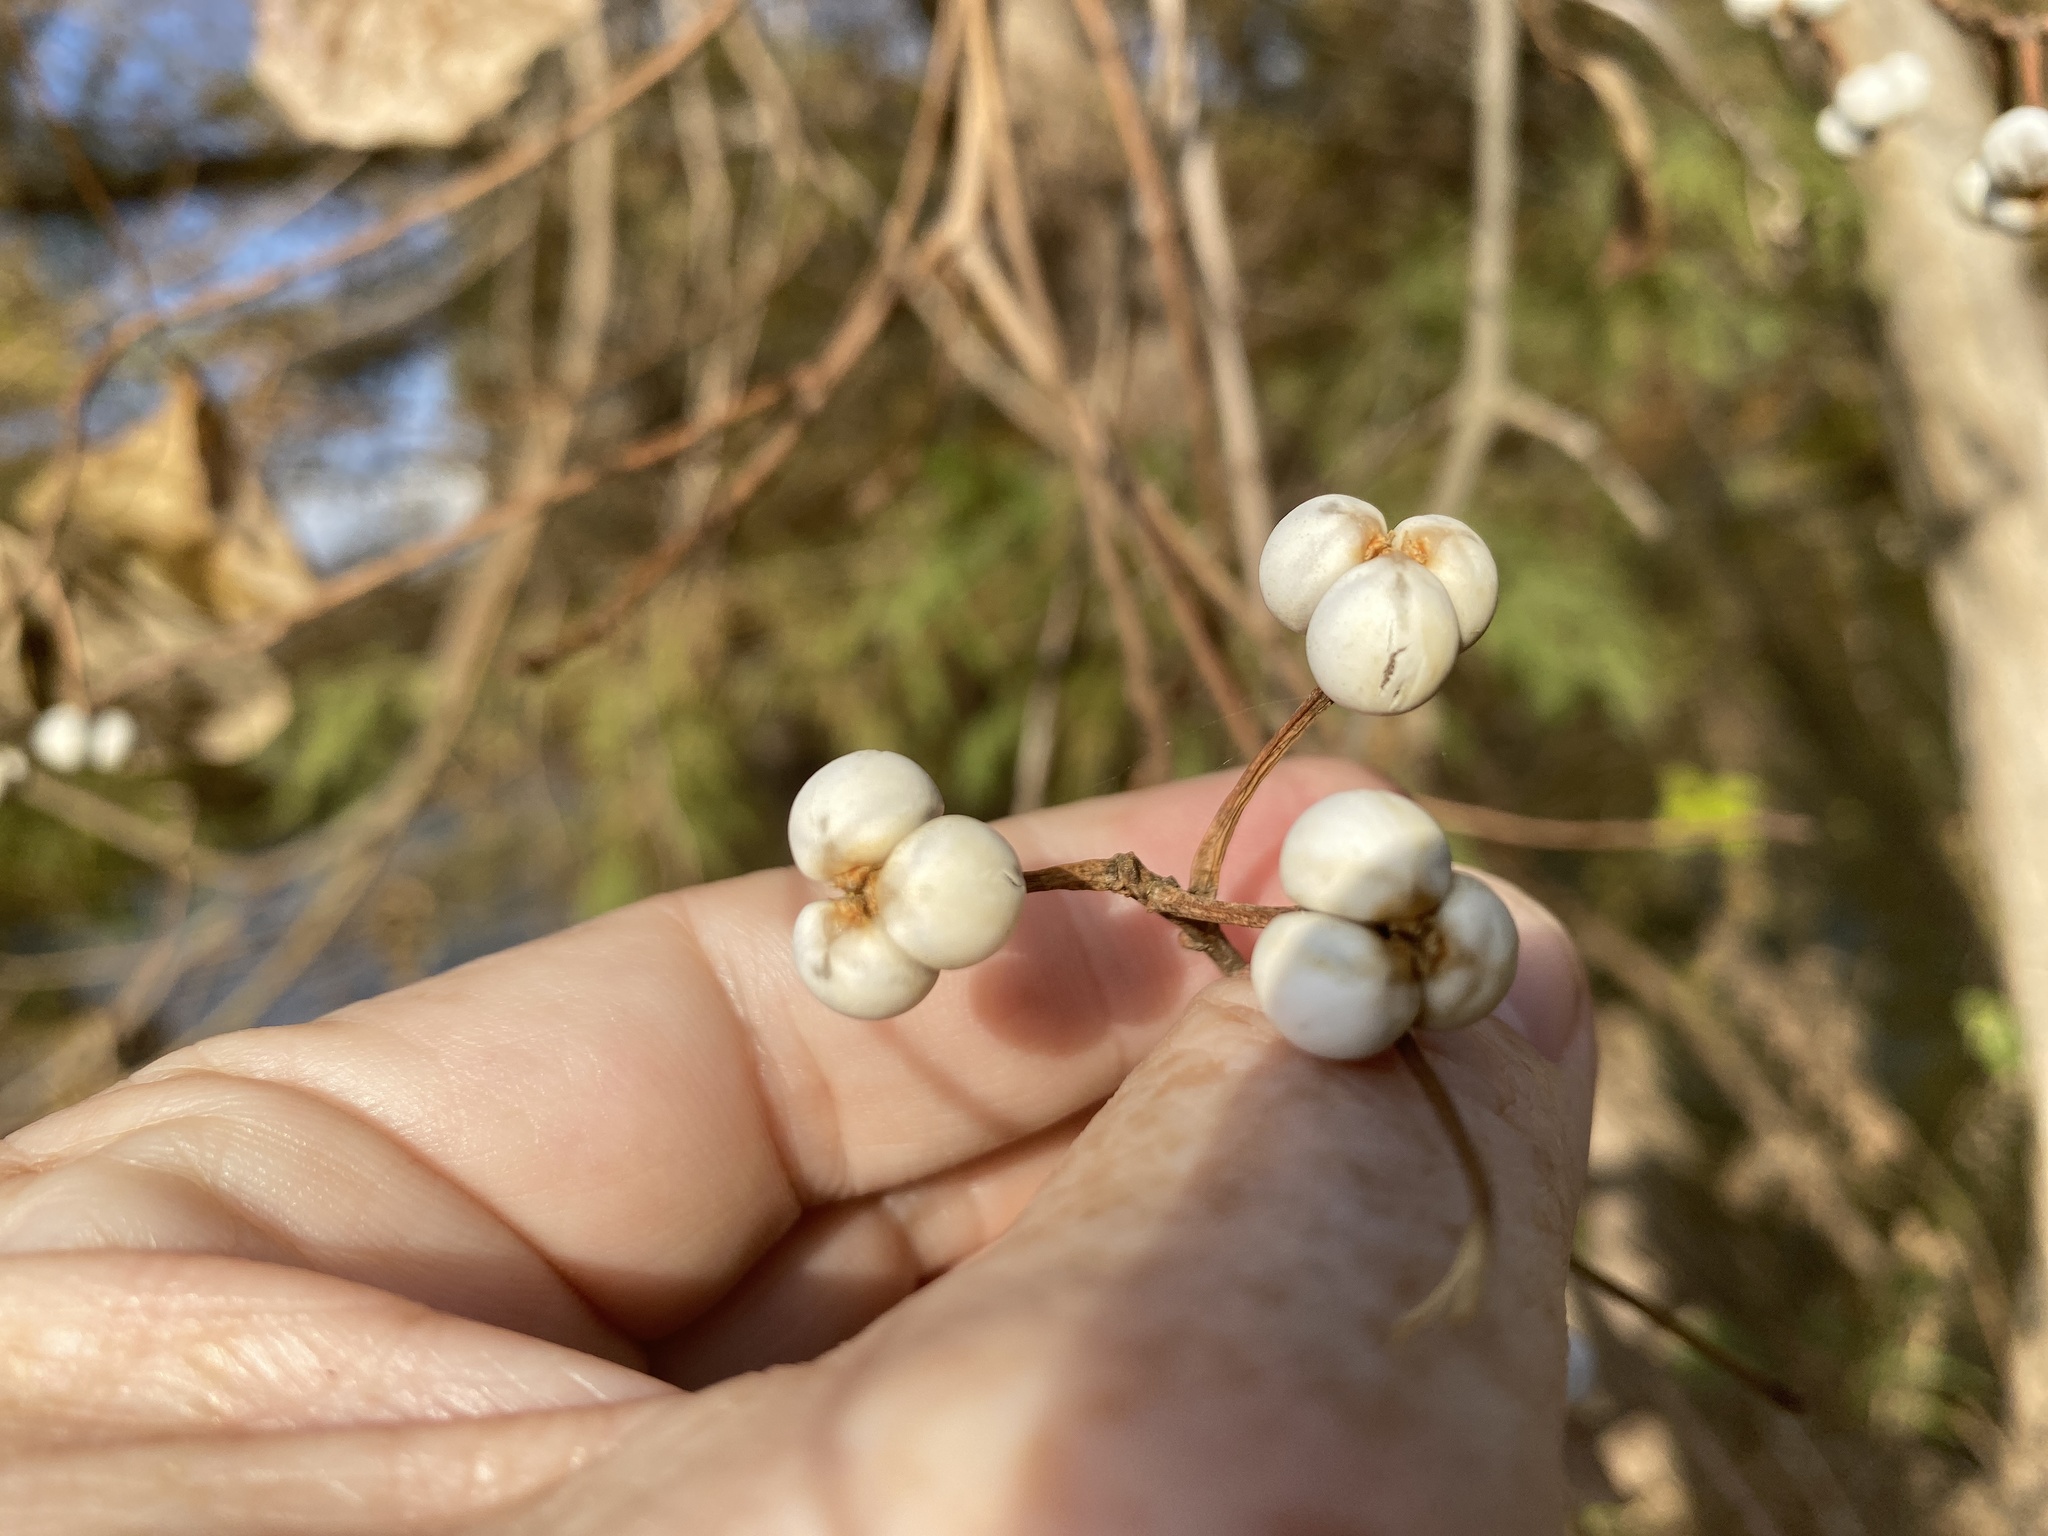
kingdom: Plantae
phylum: Tracheophyta
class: Magnoliopsida
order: Malpighiales
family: Euphorbiaceae
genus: Triadica
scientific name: Triadica sebifera
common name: Chinese tallow
